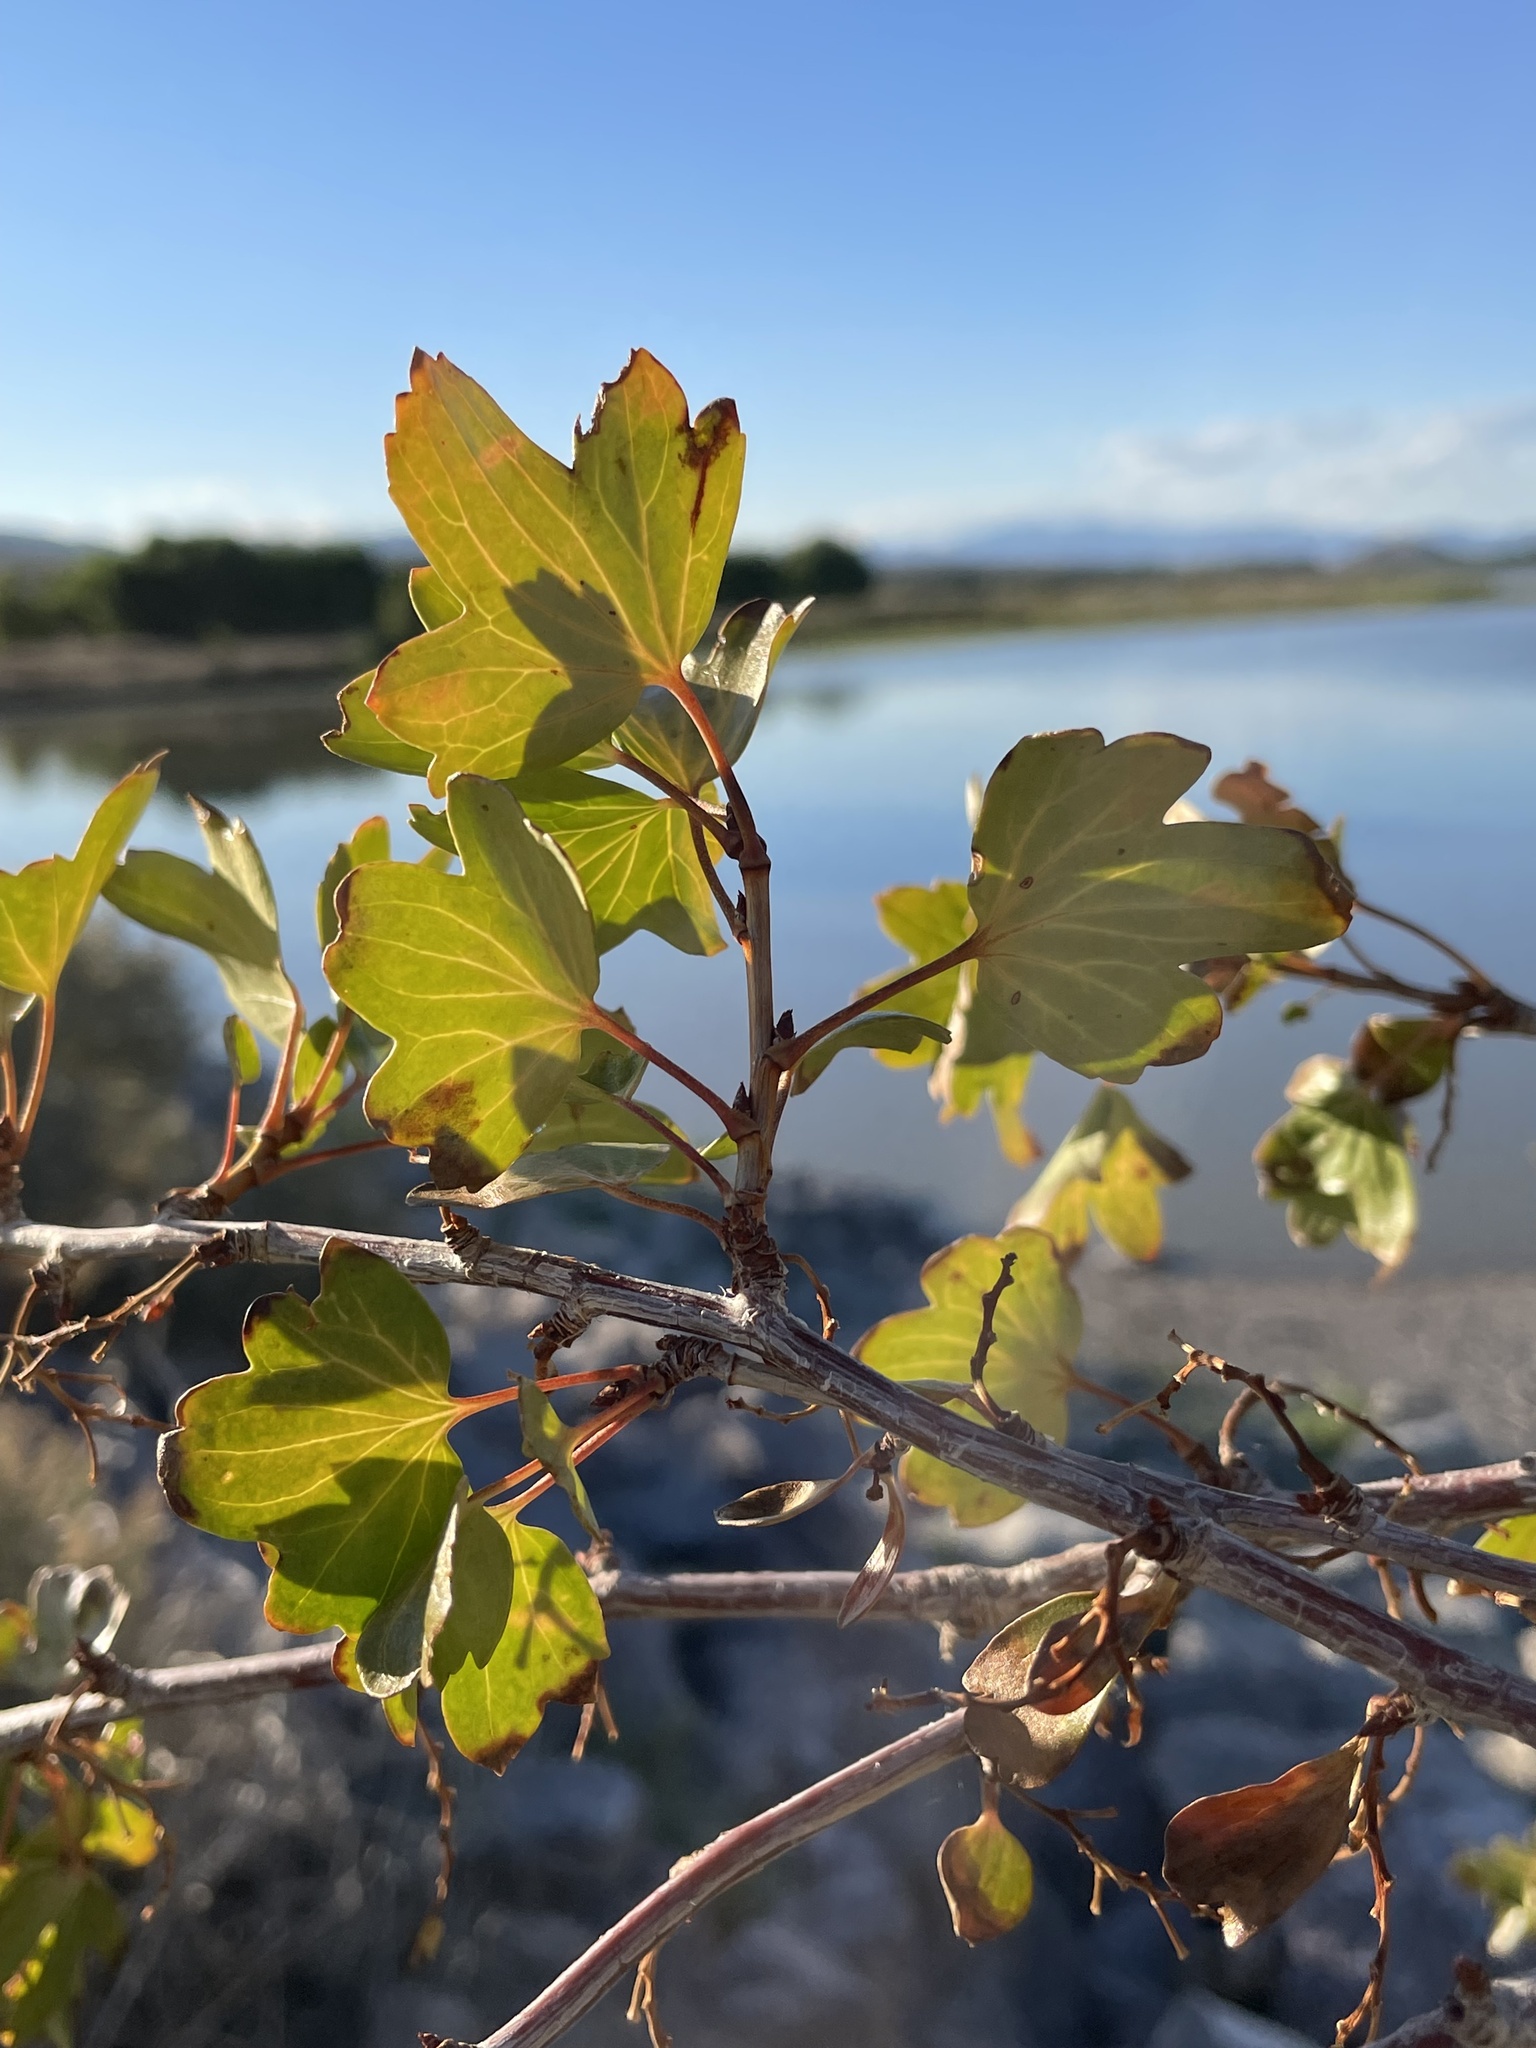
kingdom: Plantae
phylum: Tracheophyta
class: Magnoliopsida
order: Saxifragales
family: Grossulariaceae
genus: Ribes
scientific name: Ribes aureum
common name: Golden currant
